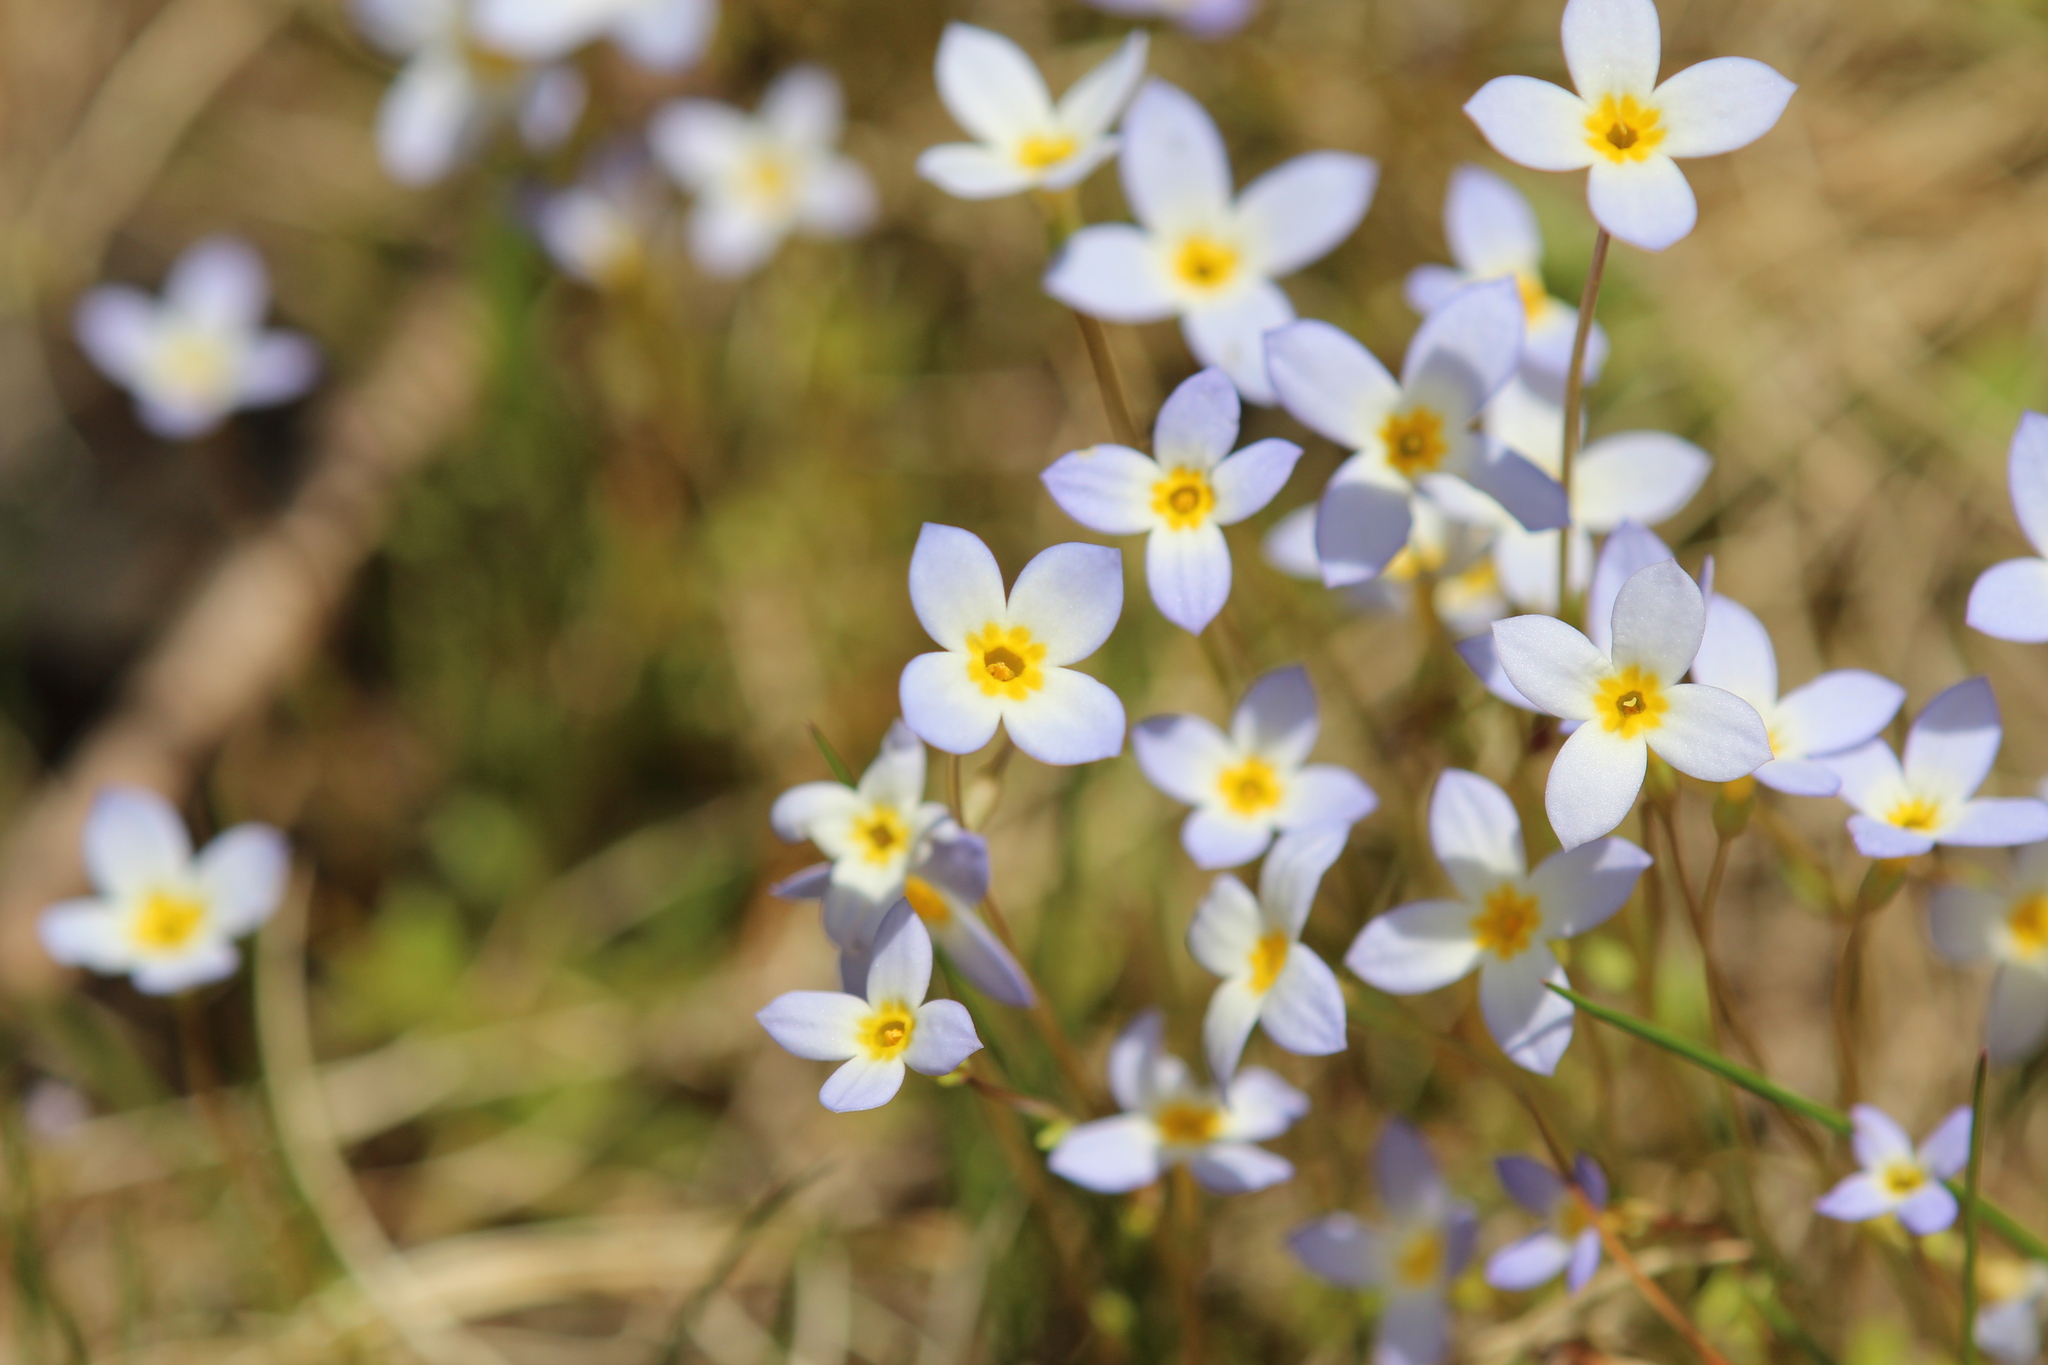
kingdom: Plantae
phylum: Tracheophyta
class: Magnoliopsida
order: Gentianales
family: Rubiaceae
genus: Houstonia
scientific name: Houstonia caerulea
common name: Bluets
